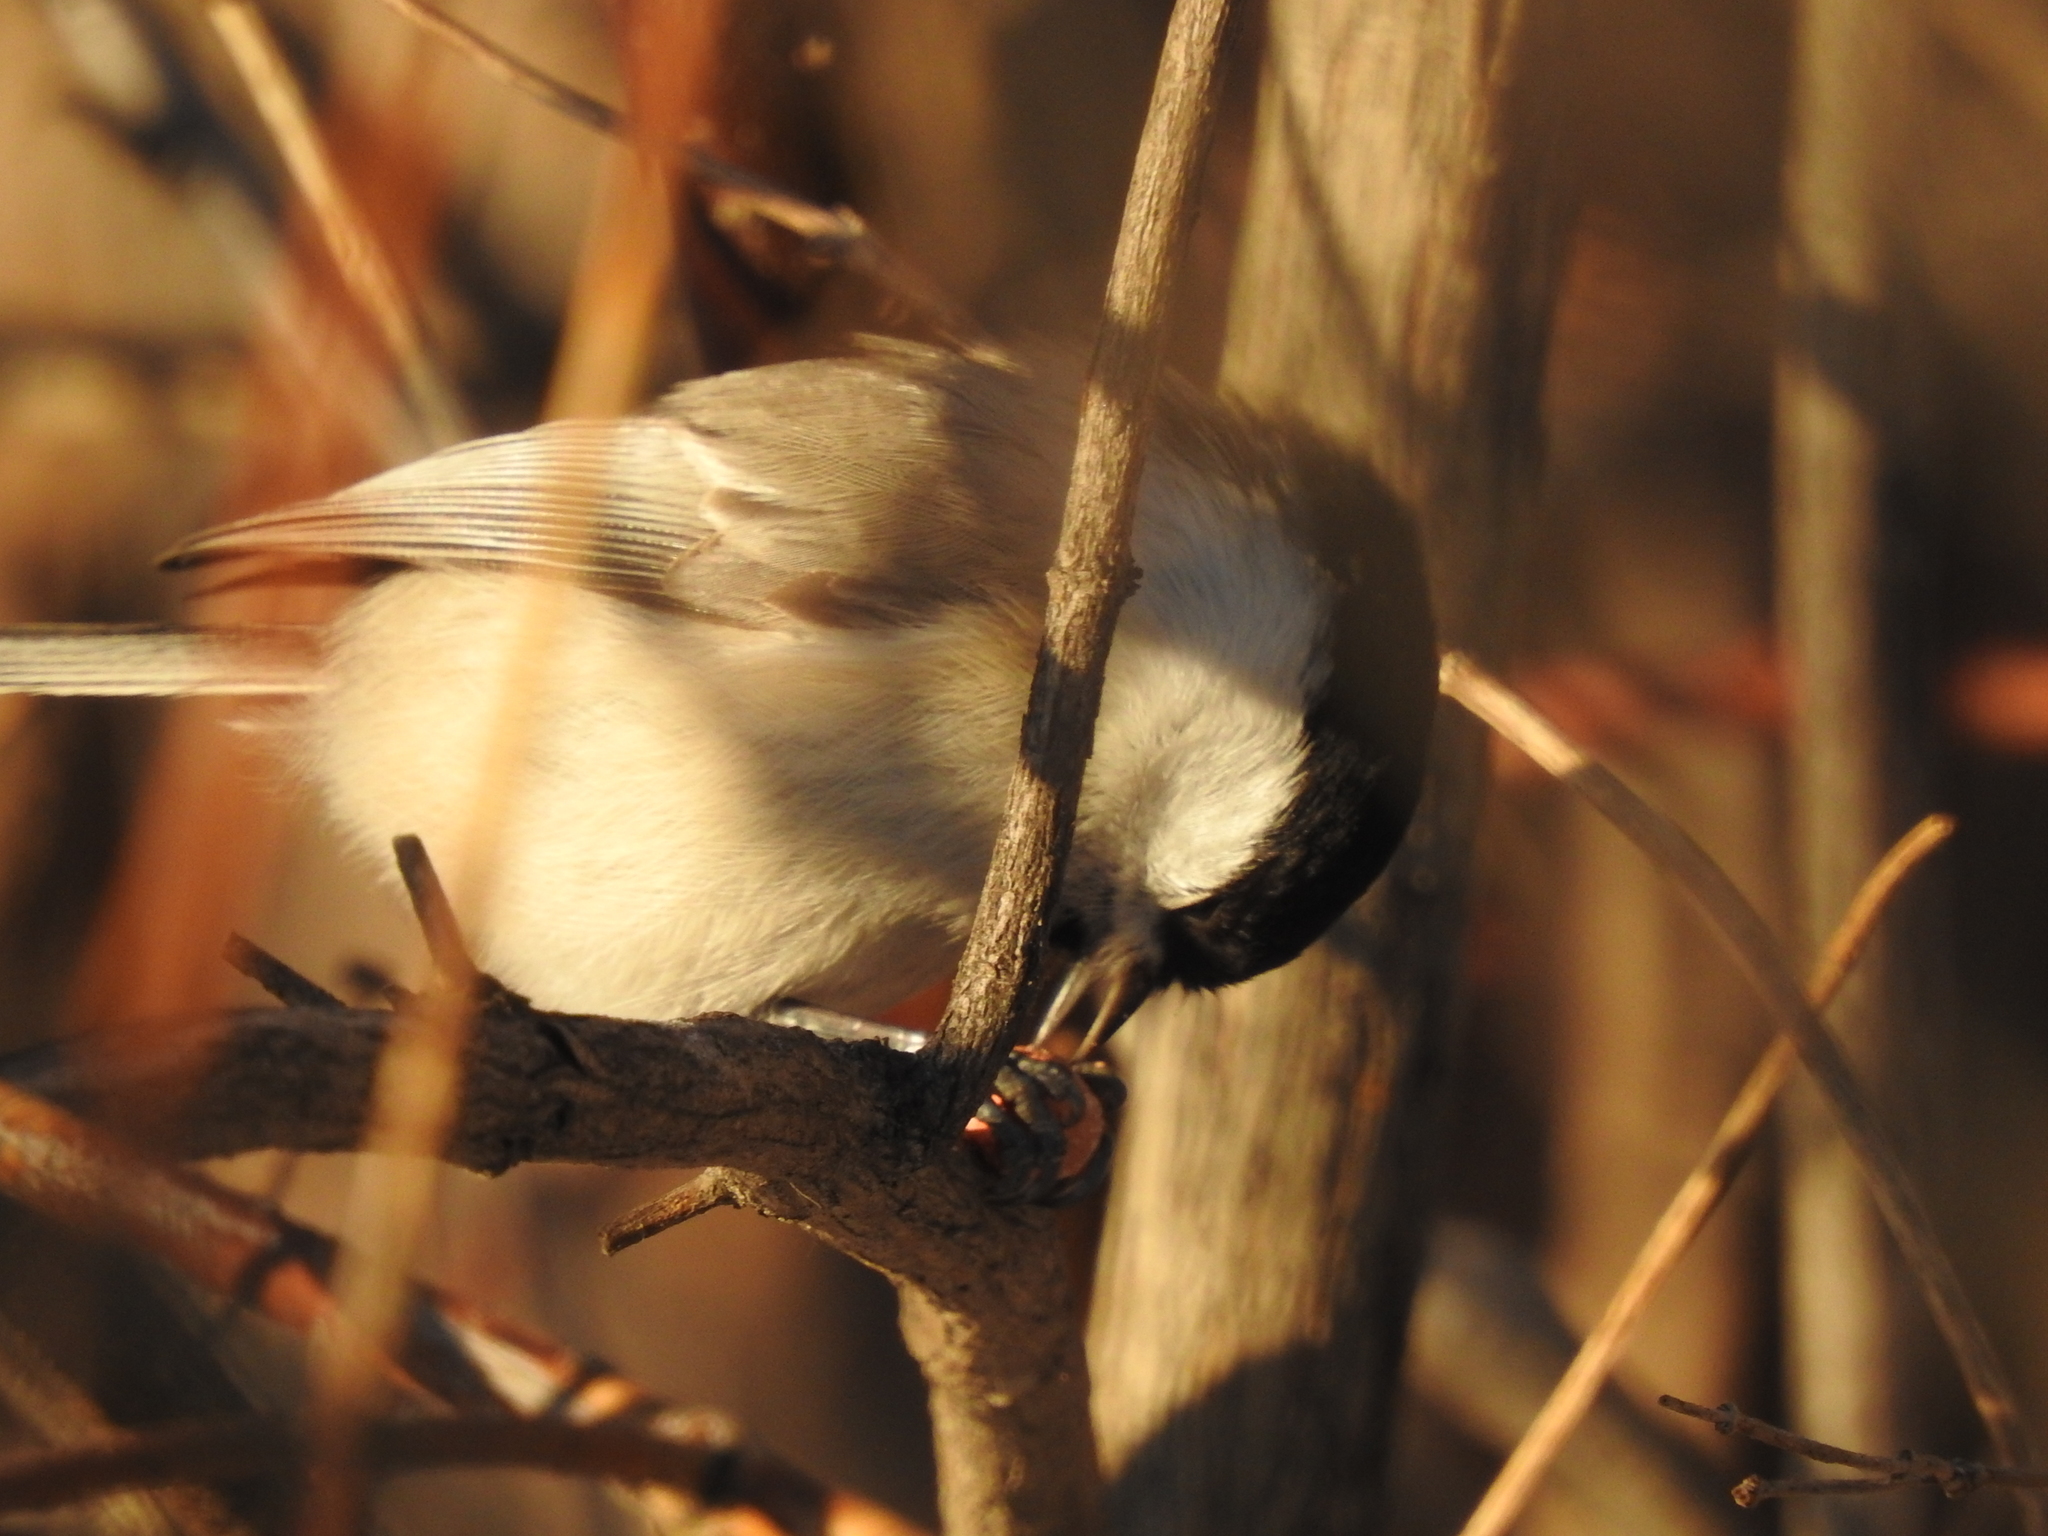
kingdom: Animalia
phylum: Chordata
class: Aves
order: Passeriformes
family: Paridae
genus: Poecile
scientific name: Poecile montanus
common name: Willow tit
